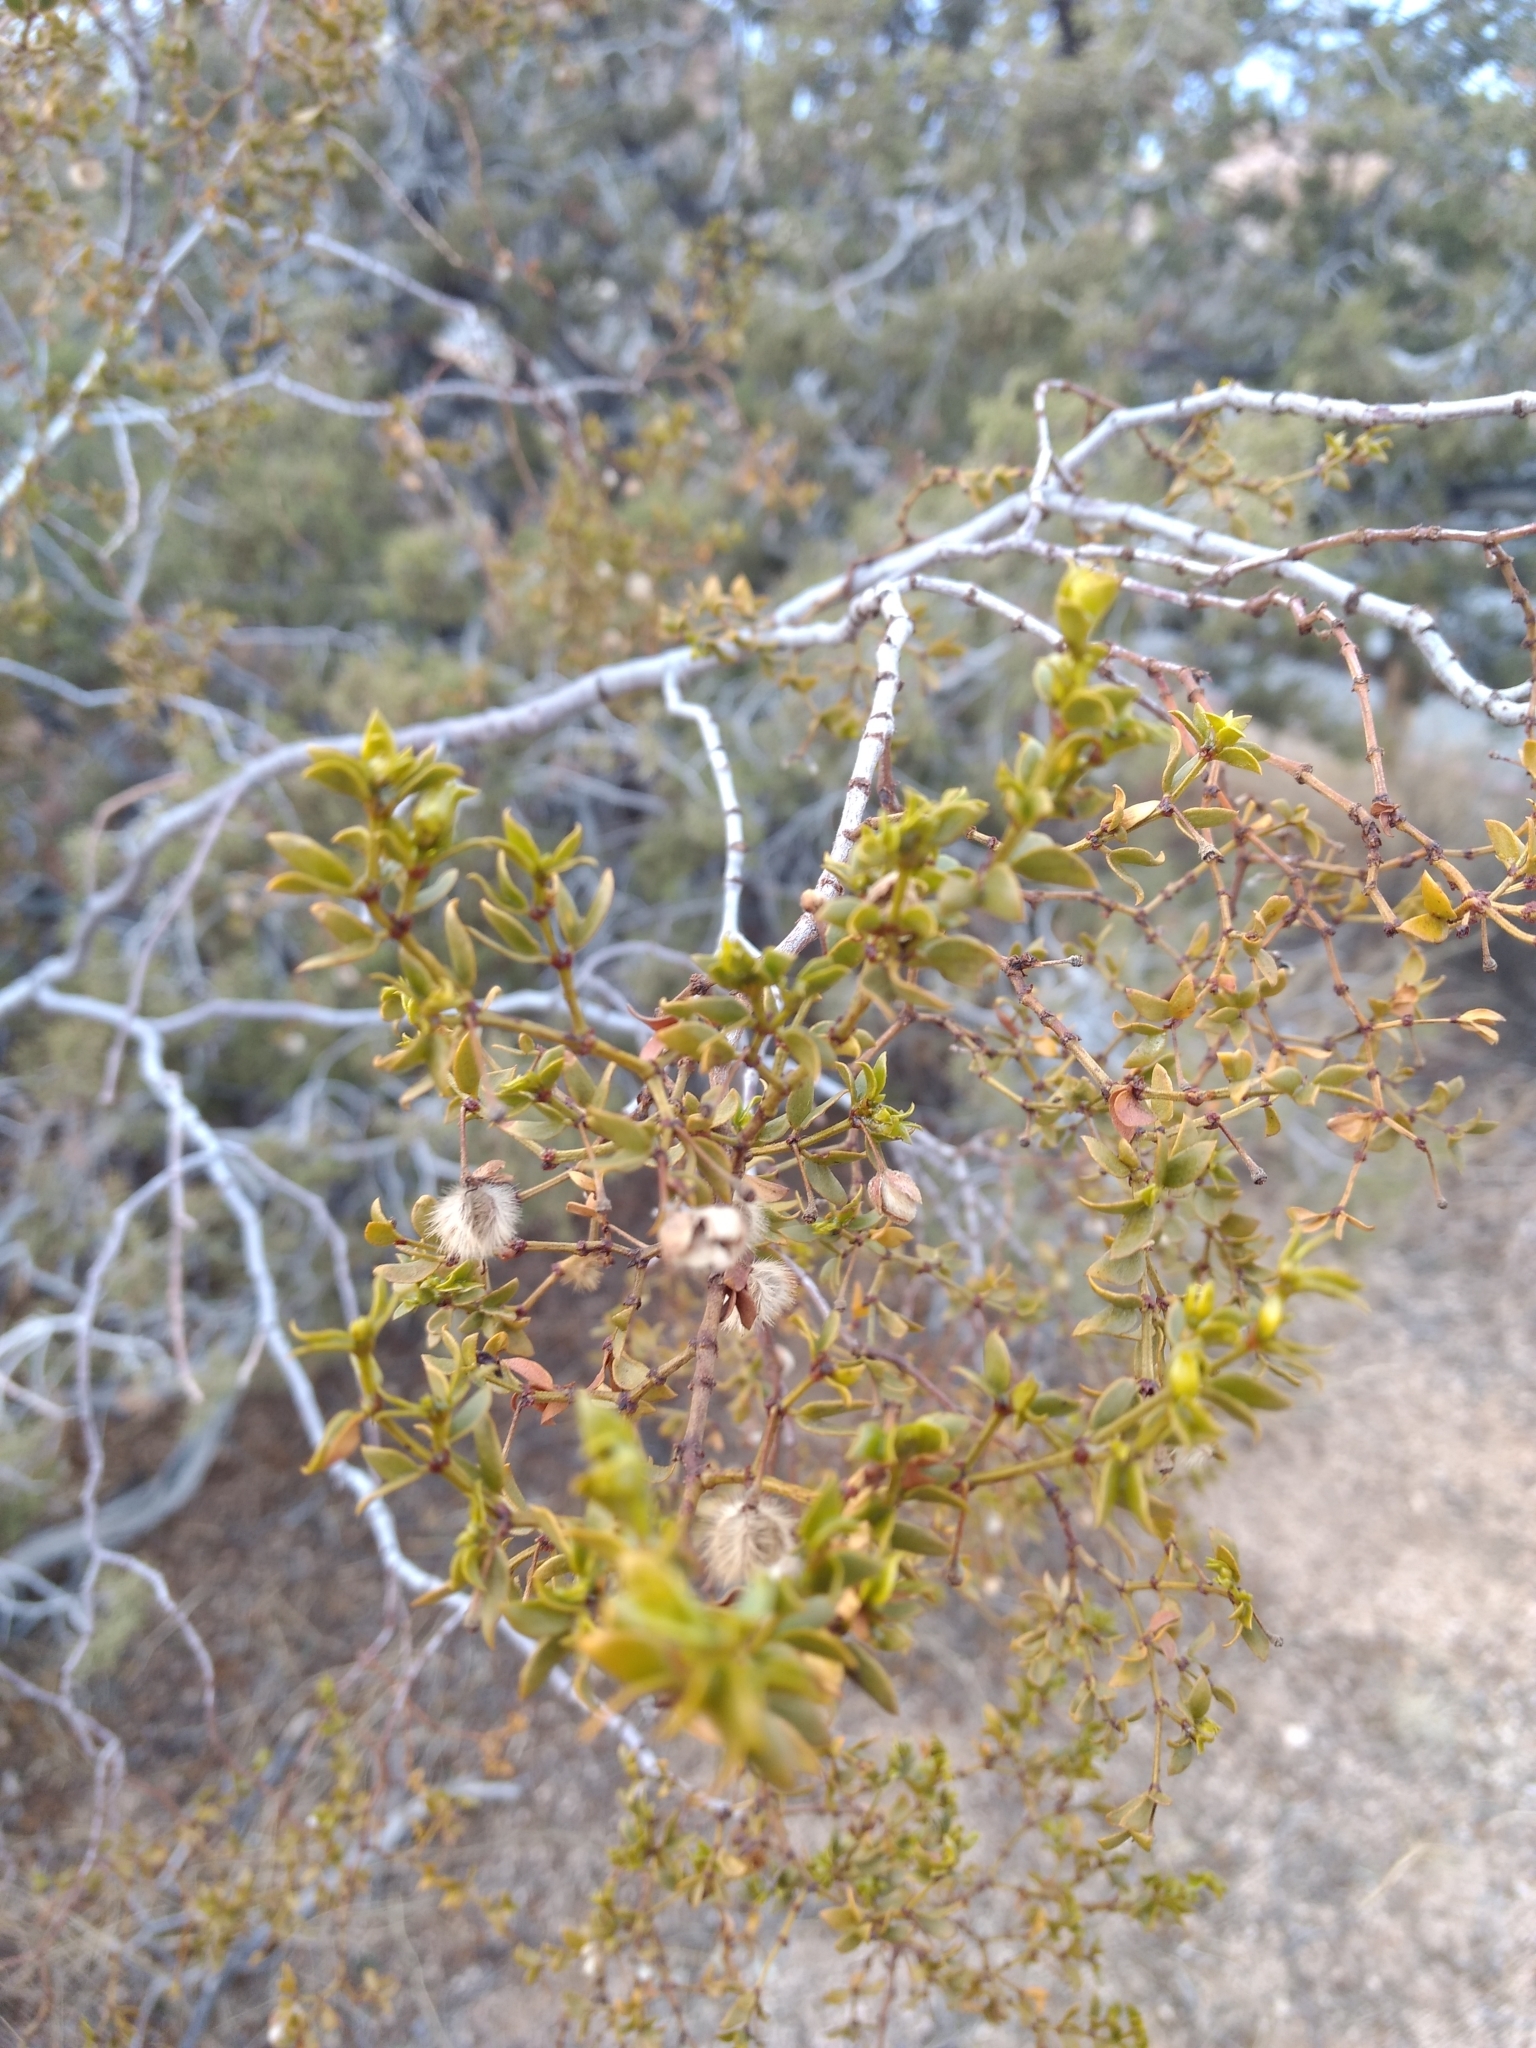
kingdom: Plantae
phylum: Tracheophyta
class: Magnoliopsida
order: Zygophyllales
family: Zygophyllaceae
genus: Larrea
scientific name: Larrea tridentata
